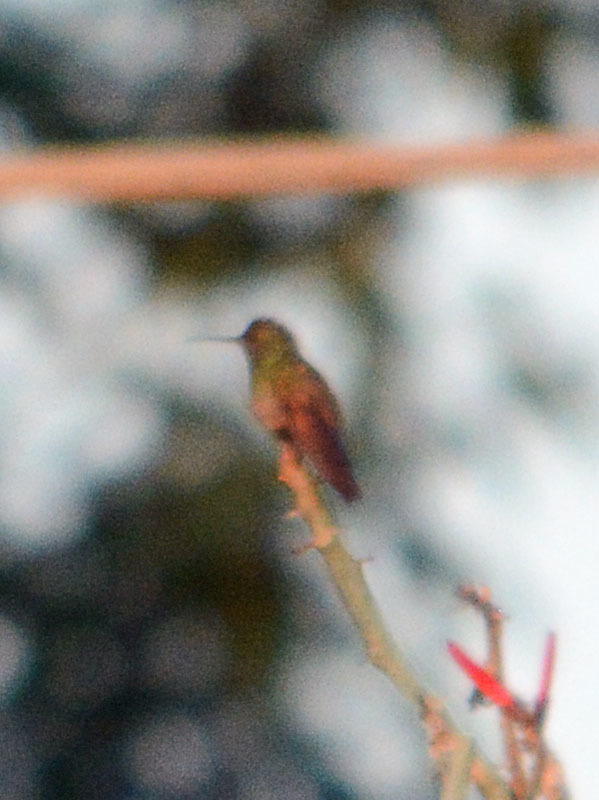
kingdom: Animalia
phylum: Chordata
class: Aves
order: Apodiformes
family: Trochilidae
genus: Saucerottia
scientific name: Saucerottia beryllina
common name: Berylline hummingbird
